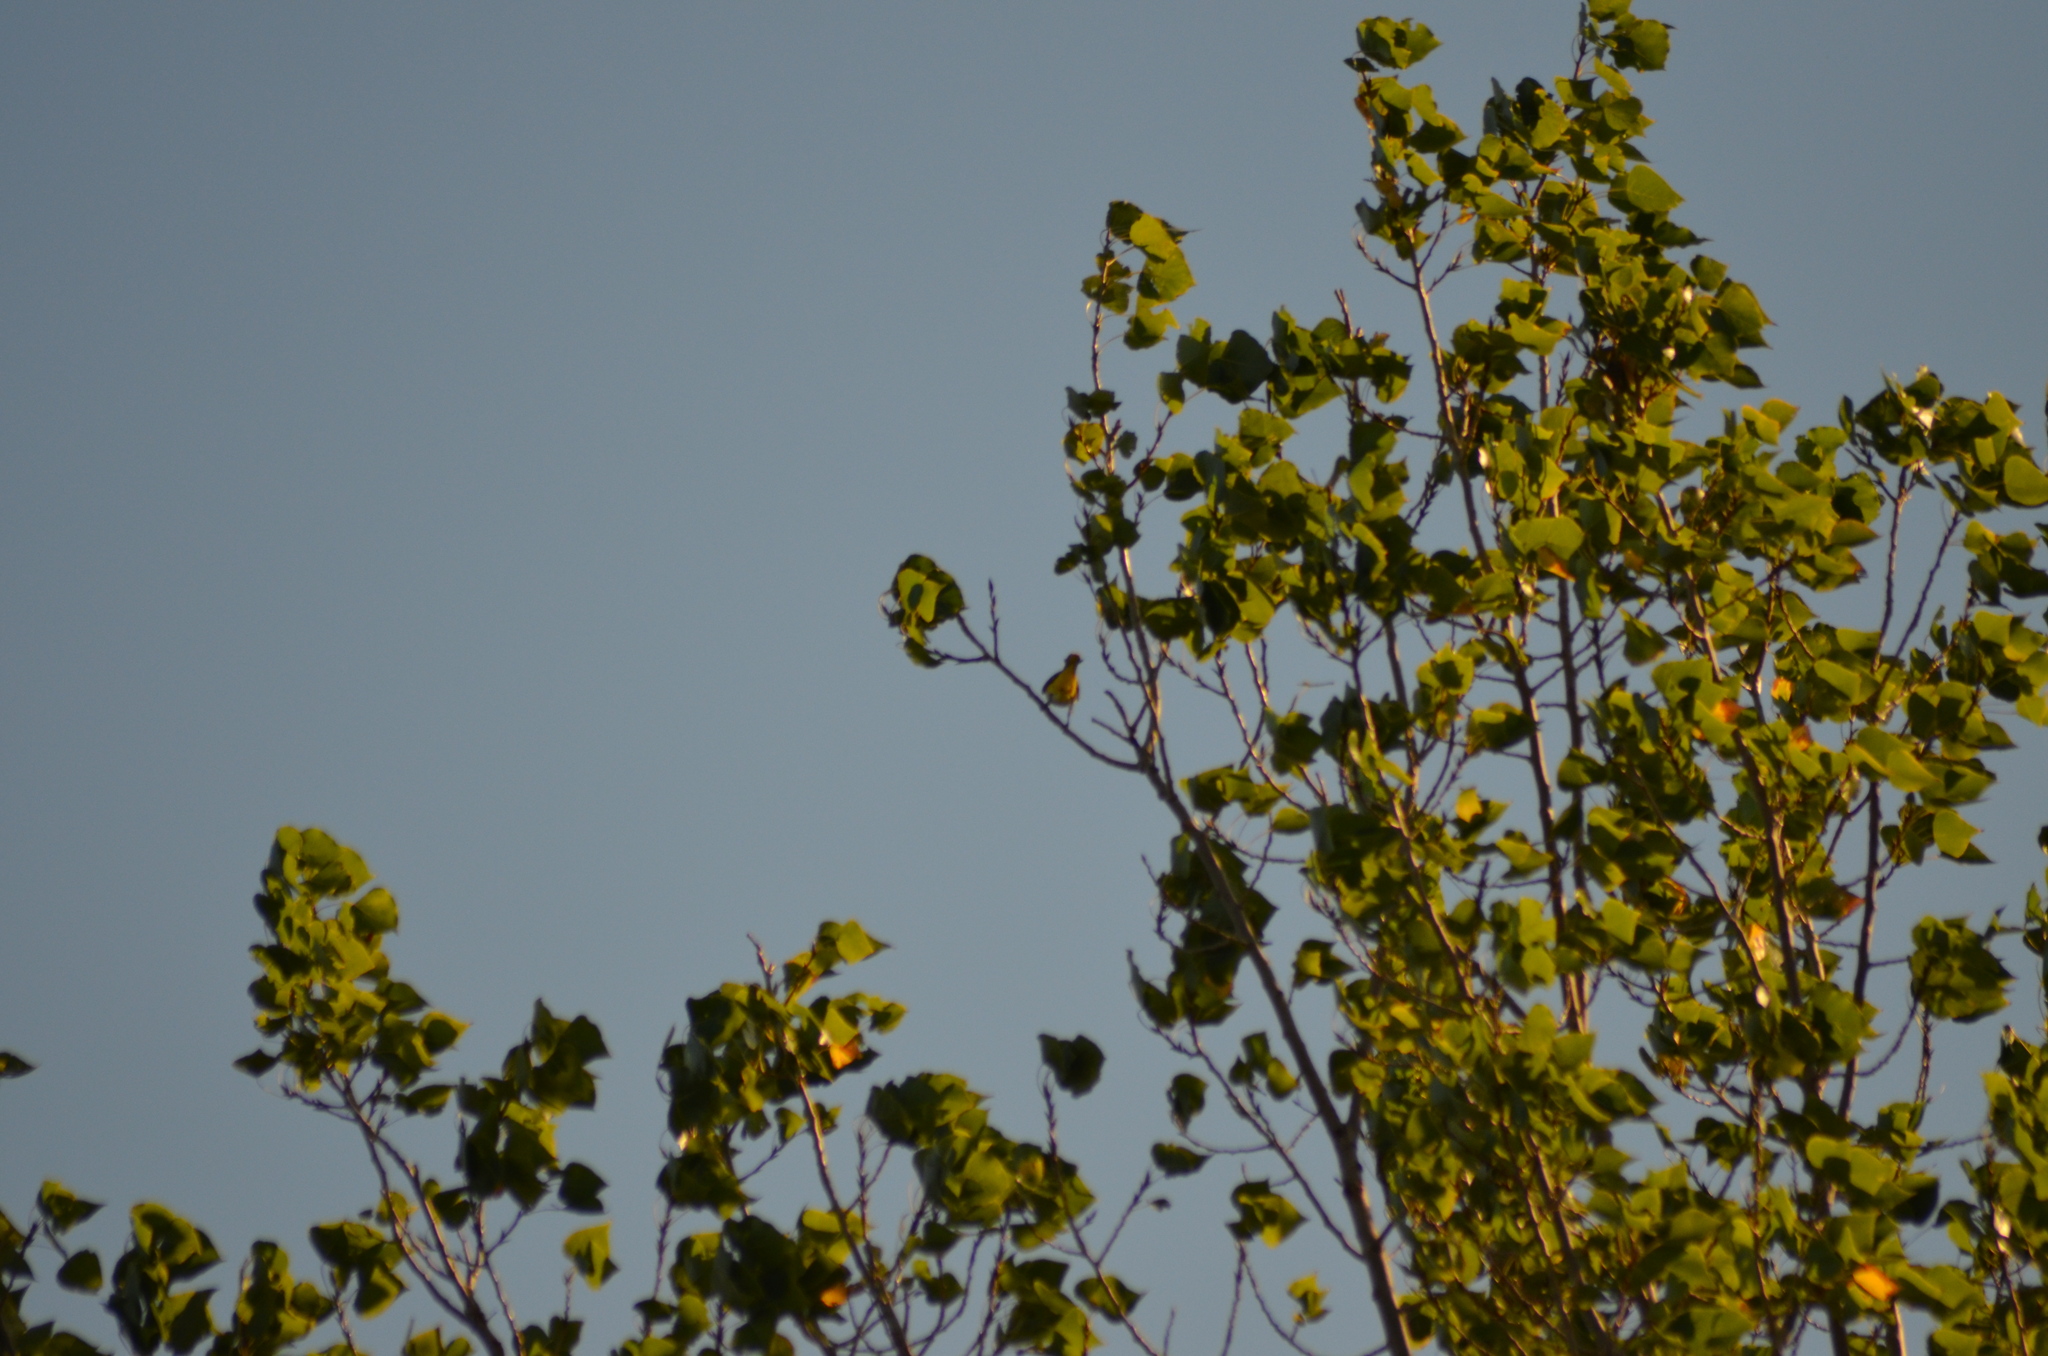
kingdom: Animalia
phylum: Chordata
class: Aves
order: Passeriformes
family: Oriolidae
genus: Oriolus
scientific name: Oriolus oriolus
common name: Eurasian golden oriole
